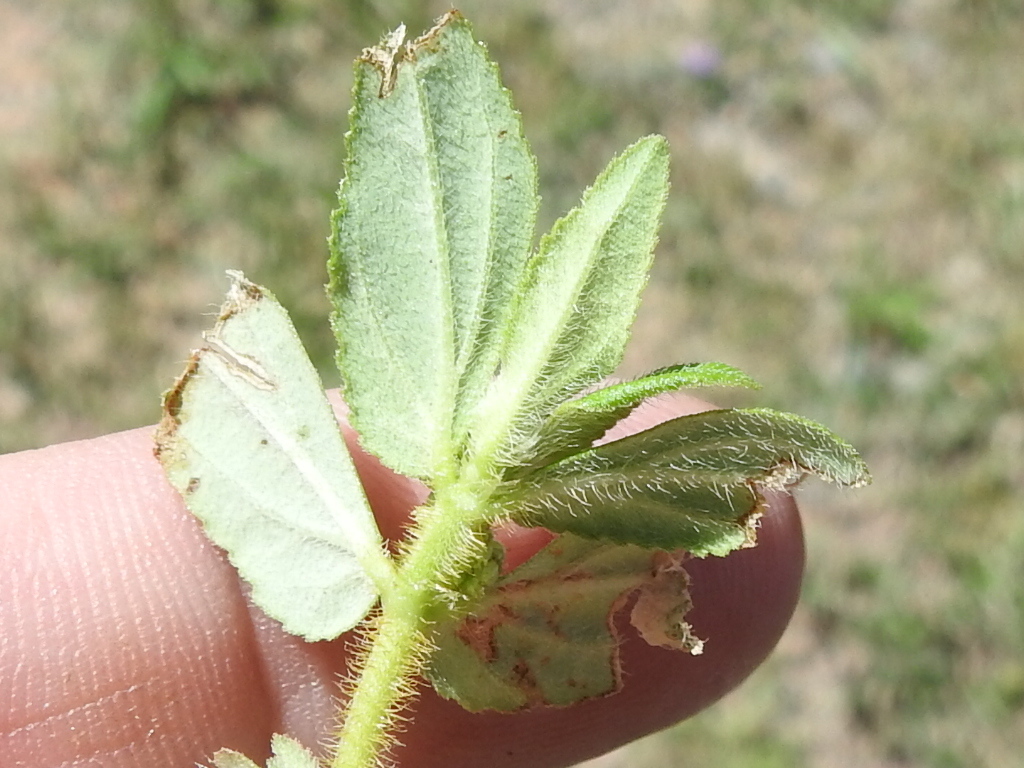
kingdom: Plantae
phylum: Tracheophyta
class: Magnoliopsida
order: Malpighiales
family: Euphorbiaceae
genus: Euphorbia
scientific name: Euphorbia hirta
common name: Pillpod sandmat
